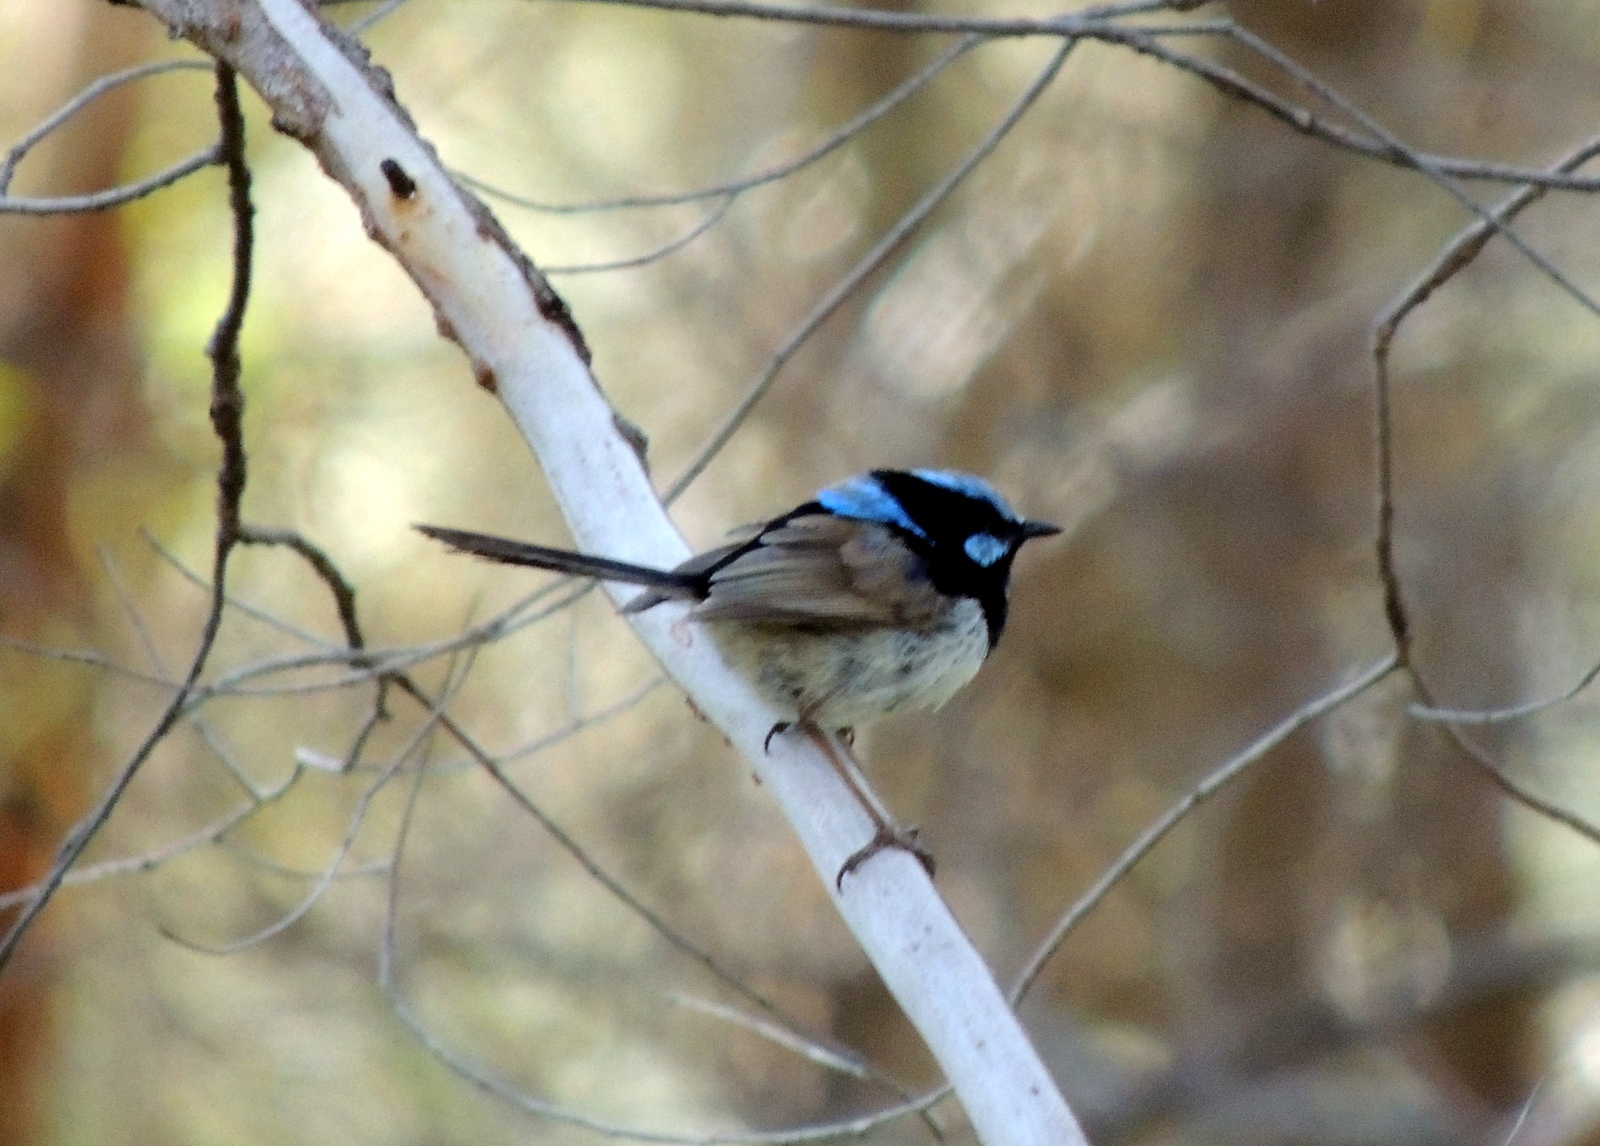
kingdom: Animalia
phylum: Chordata
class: Aves
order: Passeriformes
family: Maluridae
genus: Malurus
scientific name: Malurus cyaneus
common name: Superb fairywren
